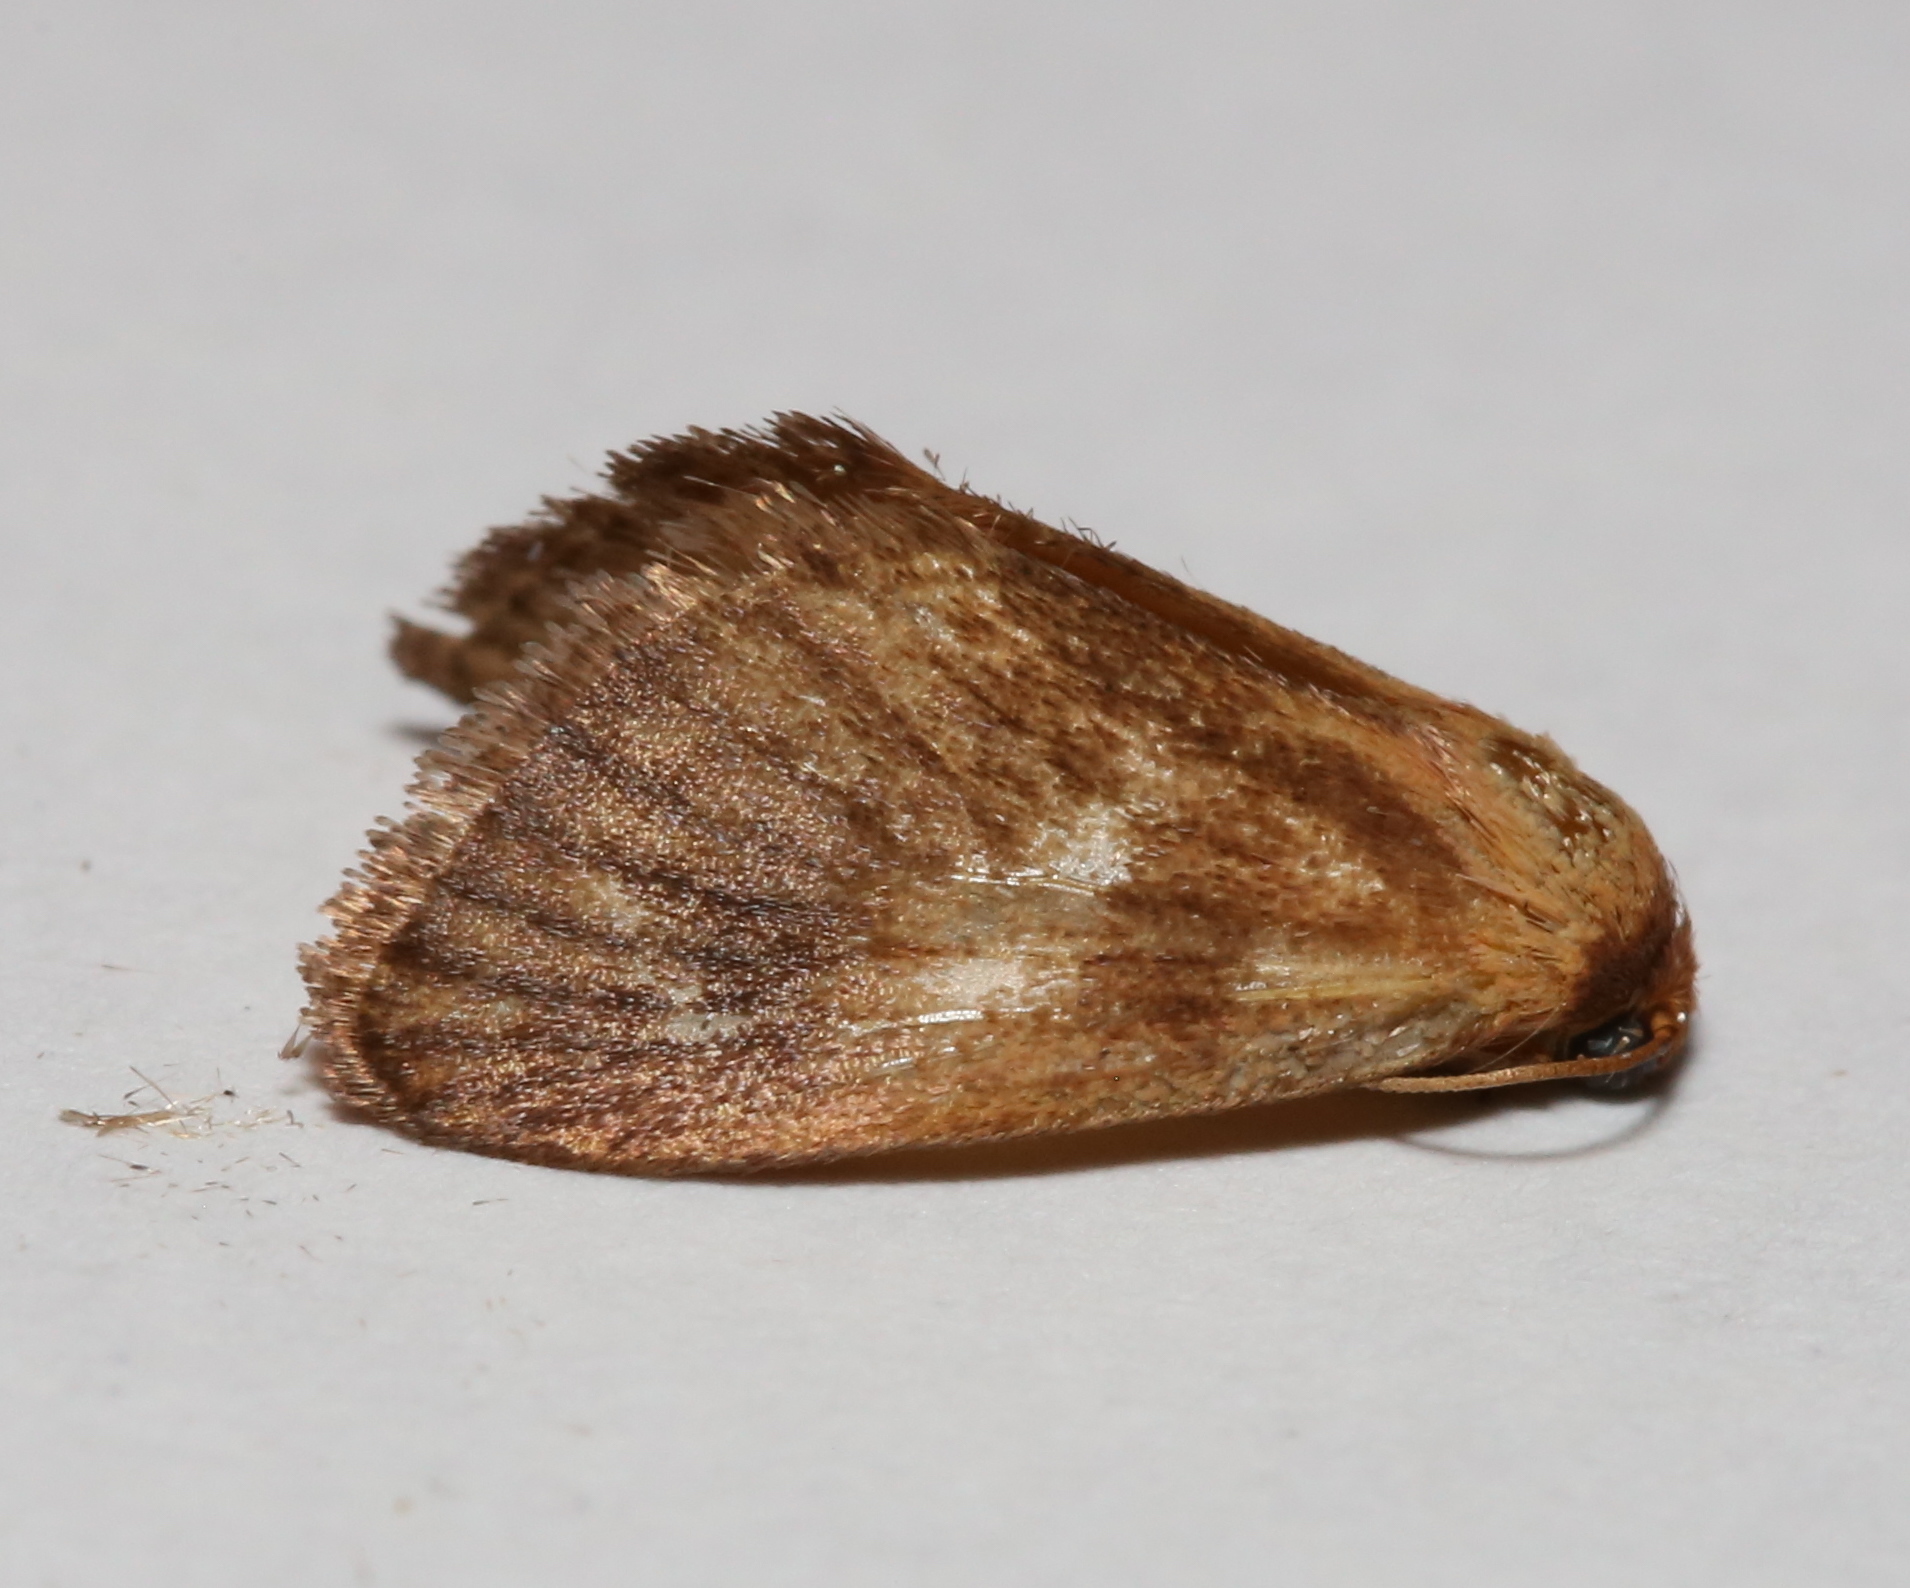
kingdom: Animalia
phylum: Arthropoda
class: Insecta
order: Lepidoptera
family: Limacodidae
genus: Tortricidia
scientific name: Tortricidia testacea
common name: Early button slug moth
